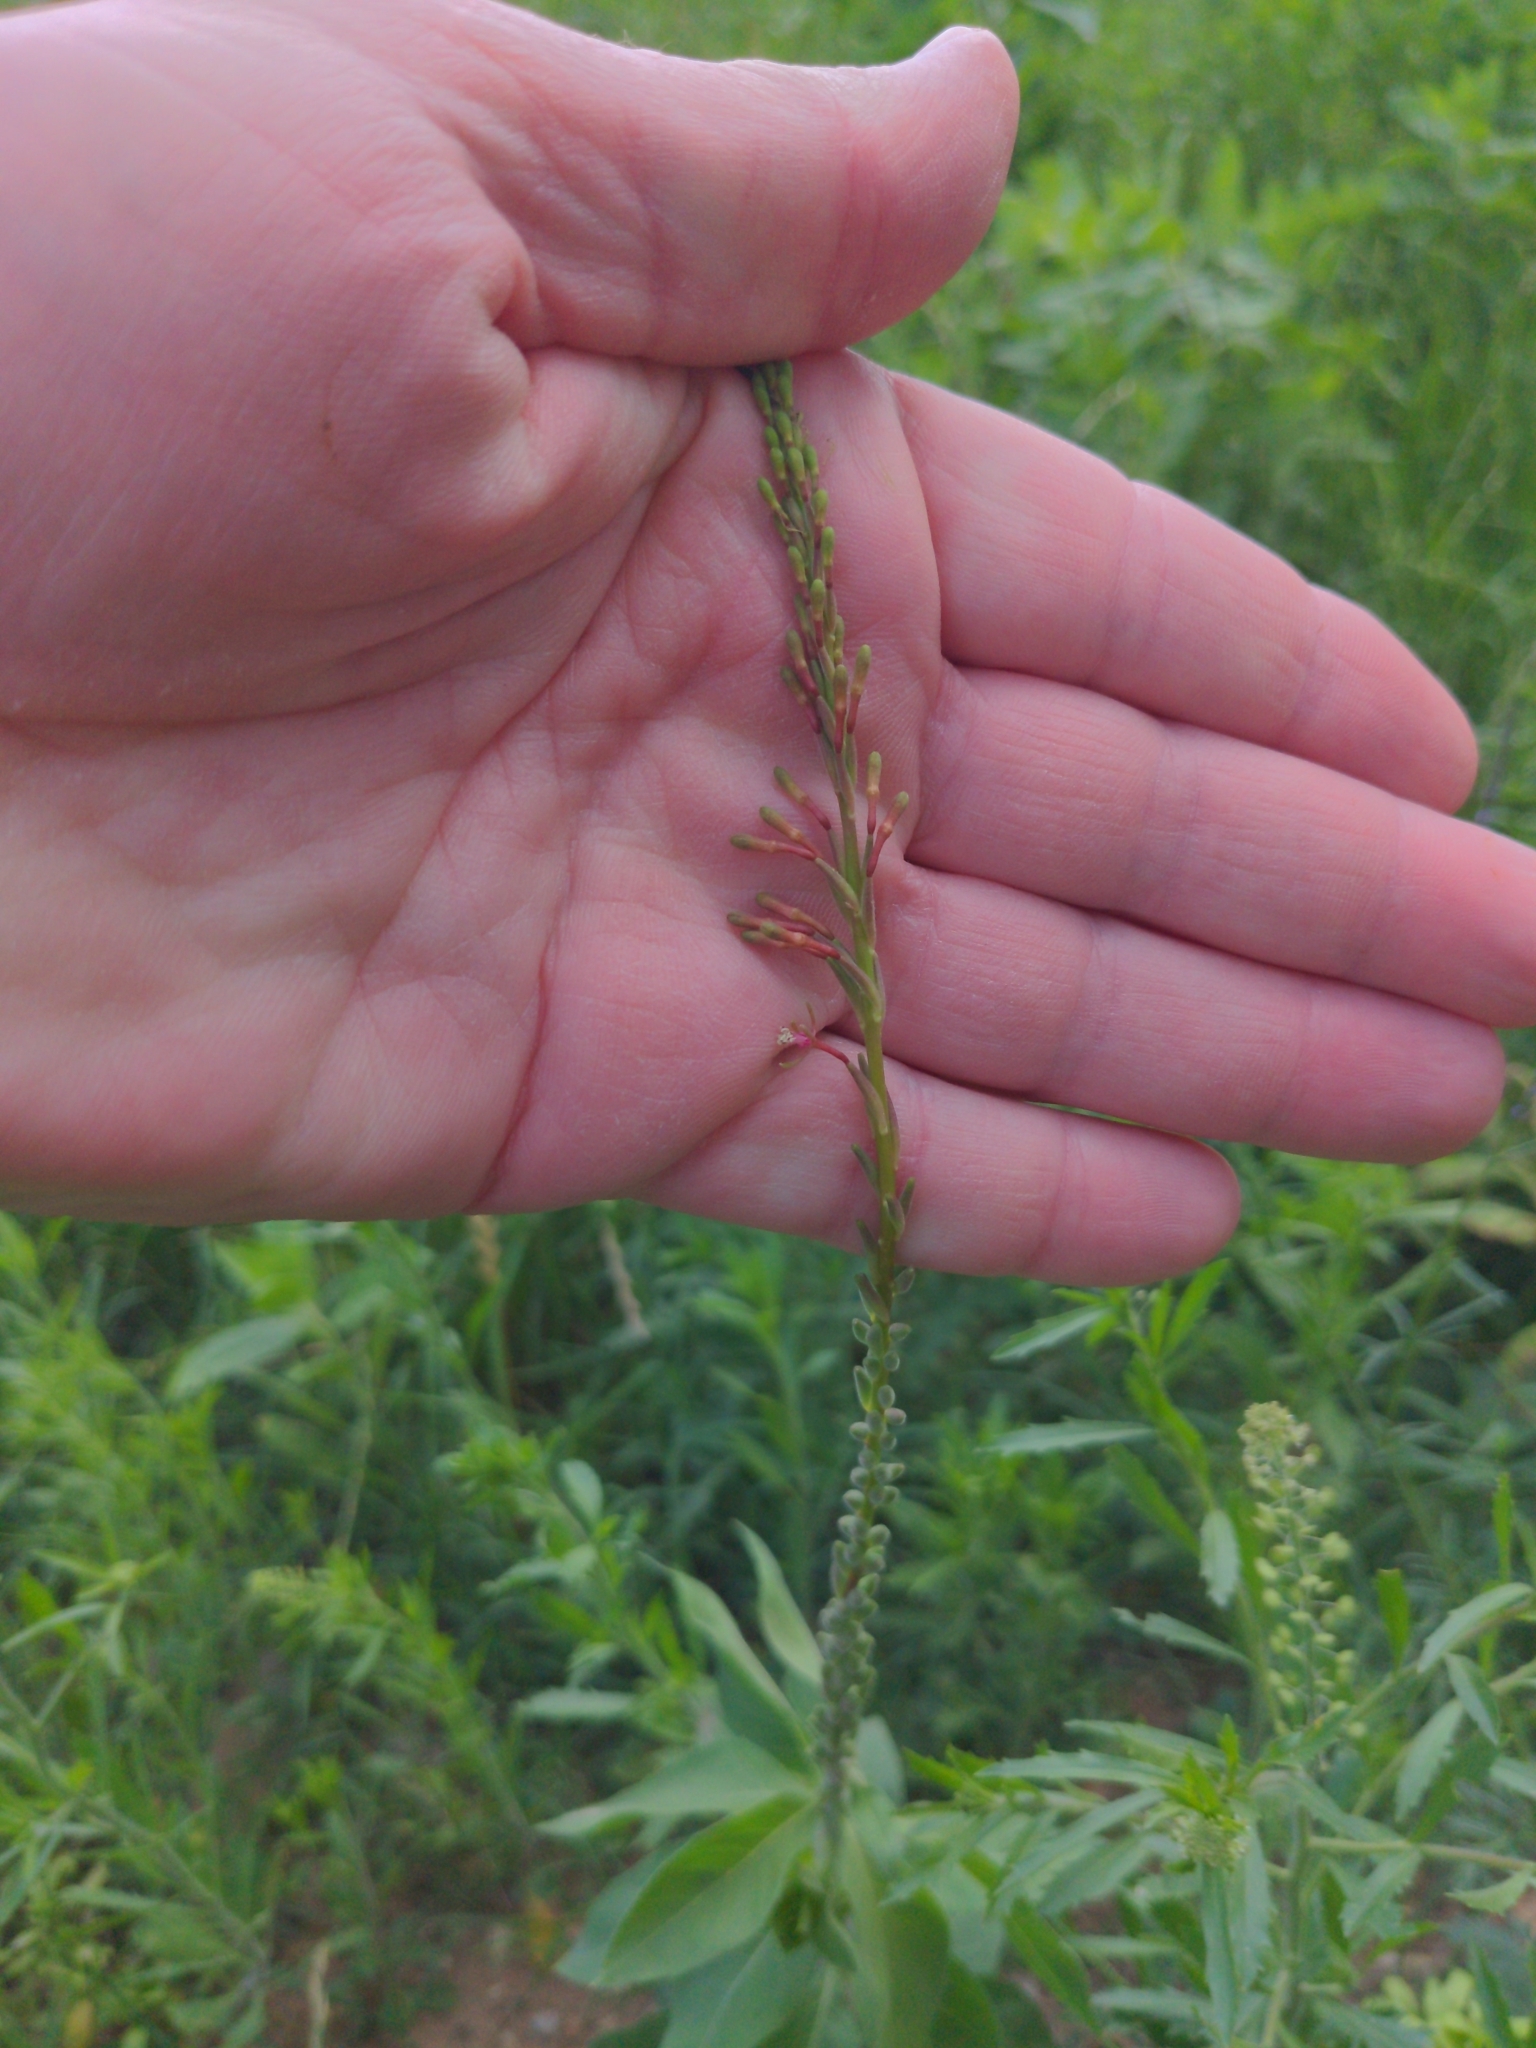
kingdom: Plantae
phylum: Tracheophyta
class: Magnoliopsida
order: Myrtales
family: Onagraceae
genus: Oenothera
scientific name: Oenothera curtiflora
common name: Velvetweed
